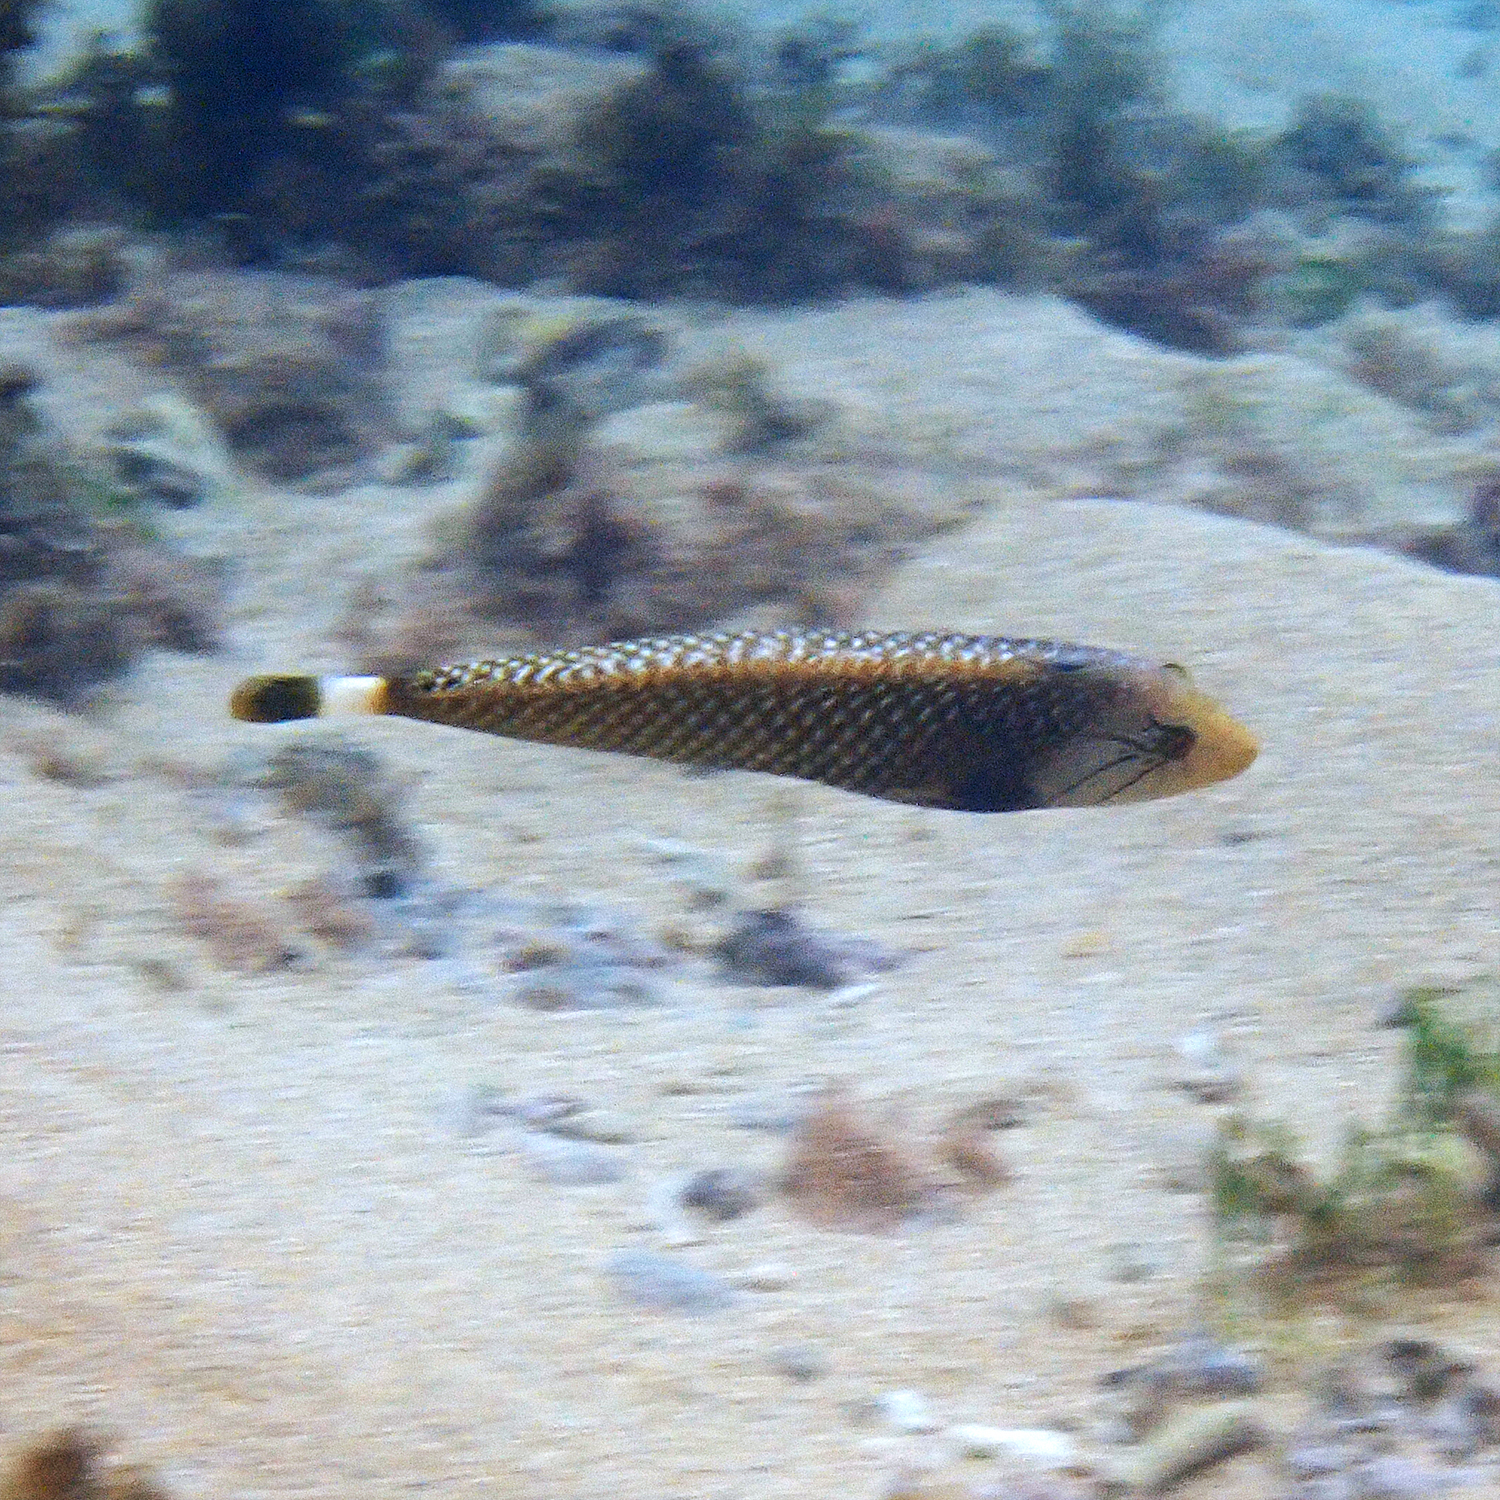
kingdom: Animalia
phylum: Chordata
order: Perciformes
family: Labridae
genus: Novaculichthys
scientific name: Novaculichthys taeniourus
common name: Rockmover wrasse
